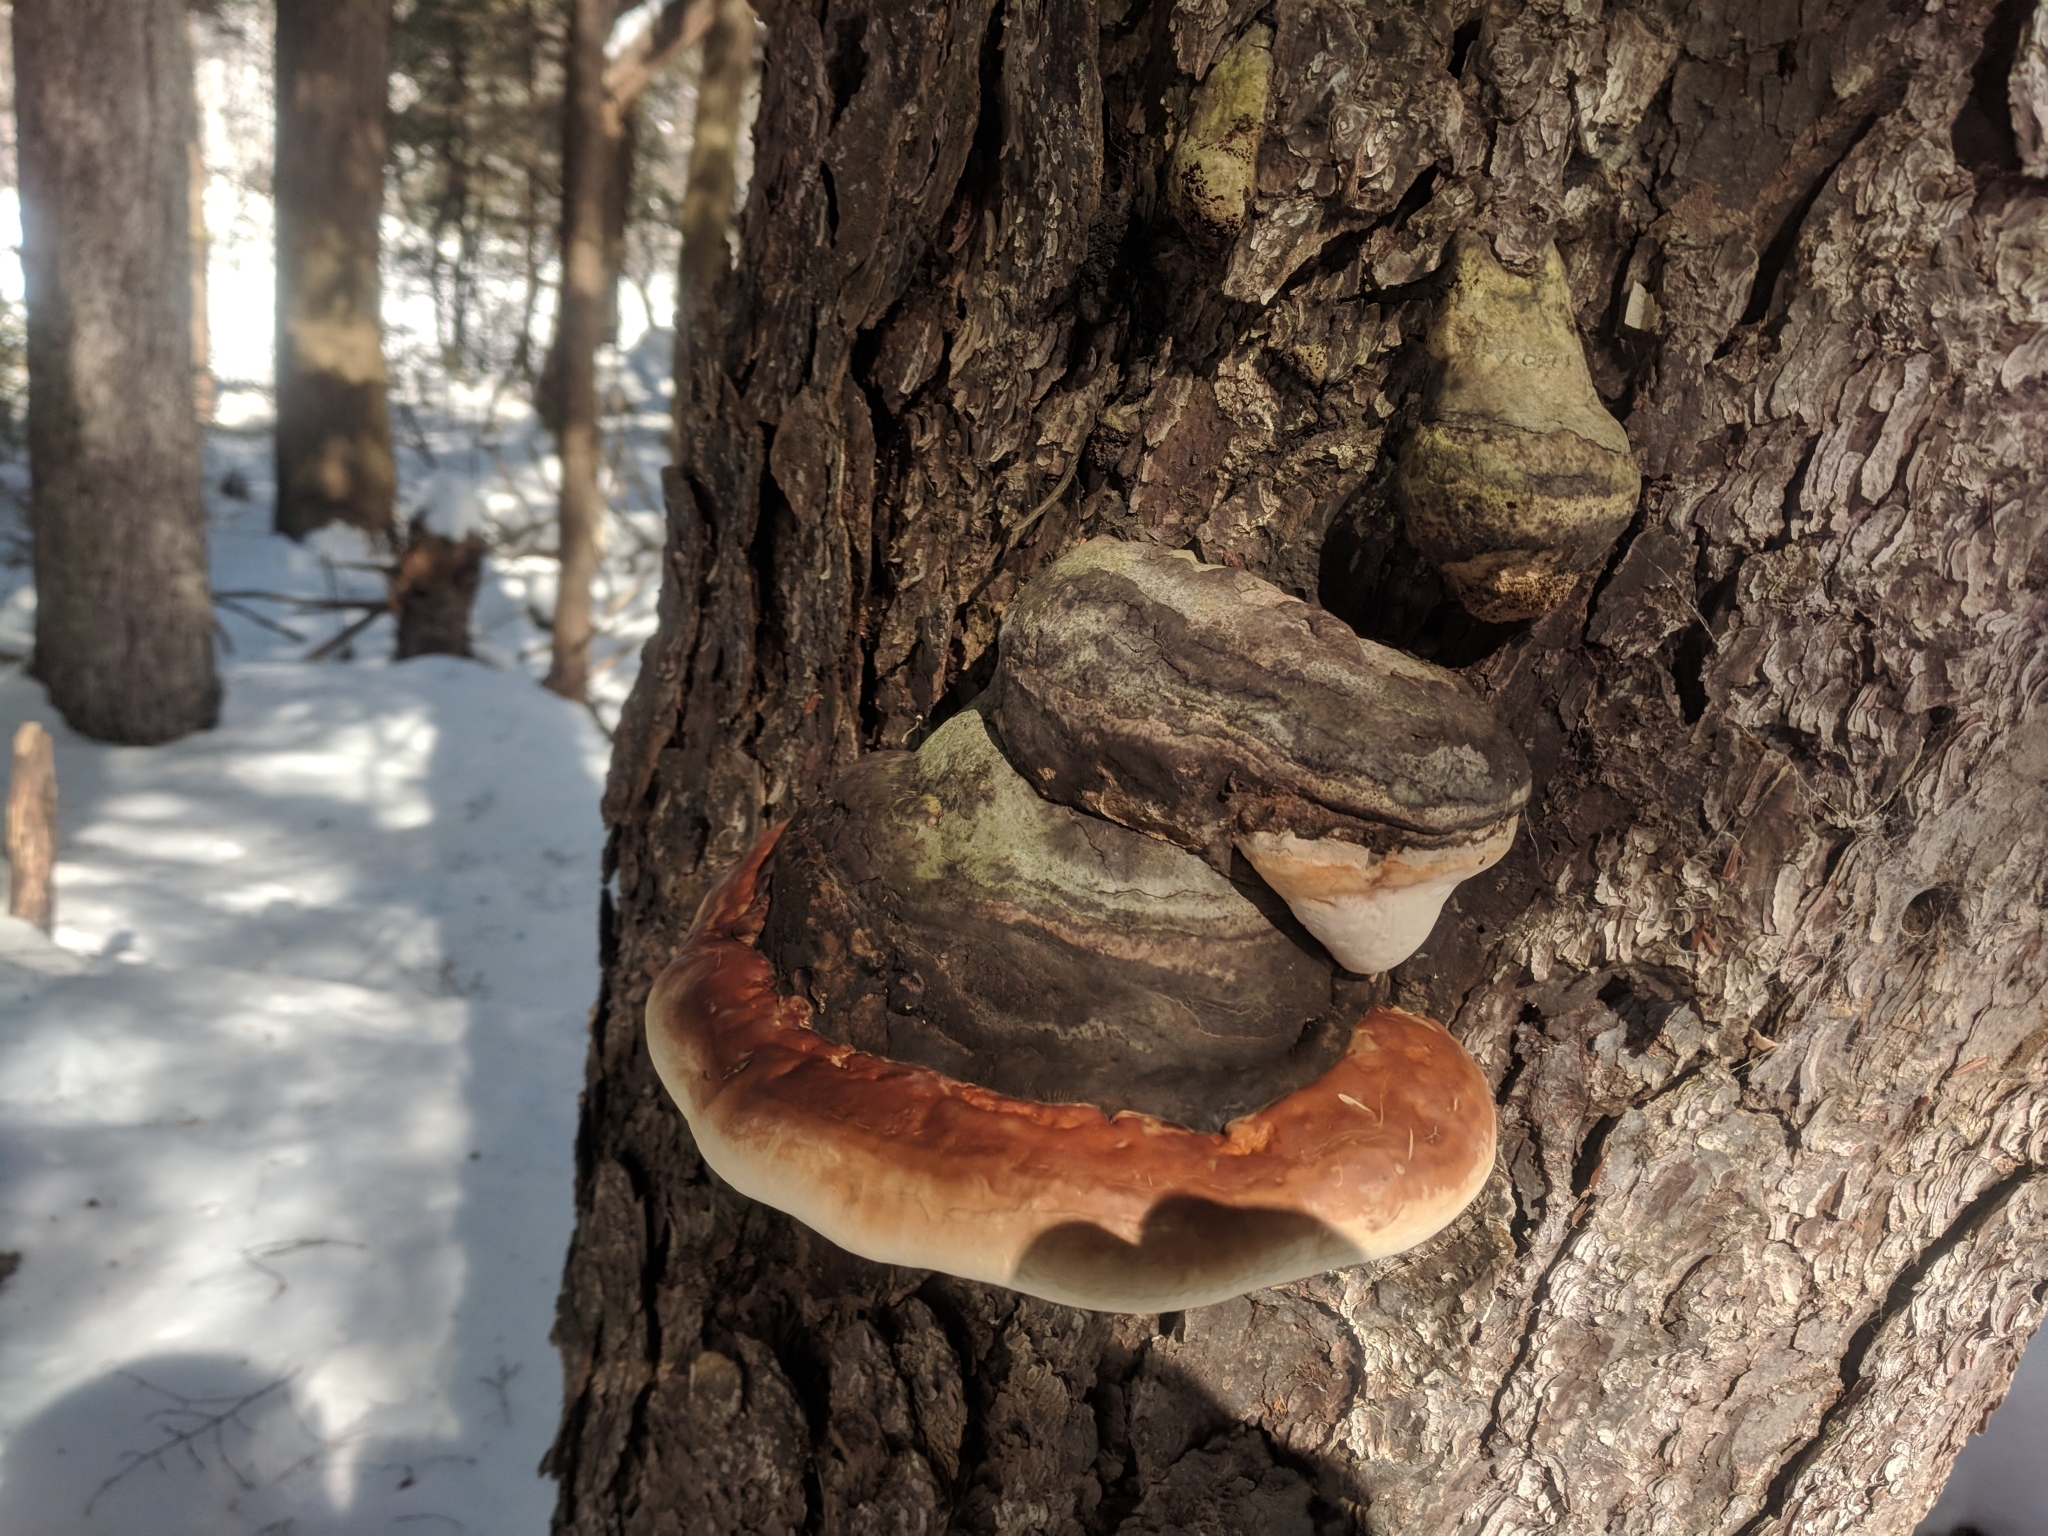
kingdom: Fungi
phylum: Basidiomycota
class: Agaricomycetes
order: Polyporales
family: Fomitopsidaceae
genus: Fomitopsis
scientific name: Fomitopsis mounceae
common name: Northern red belt
